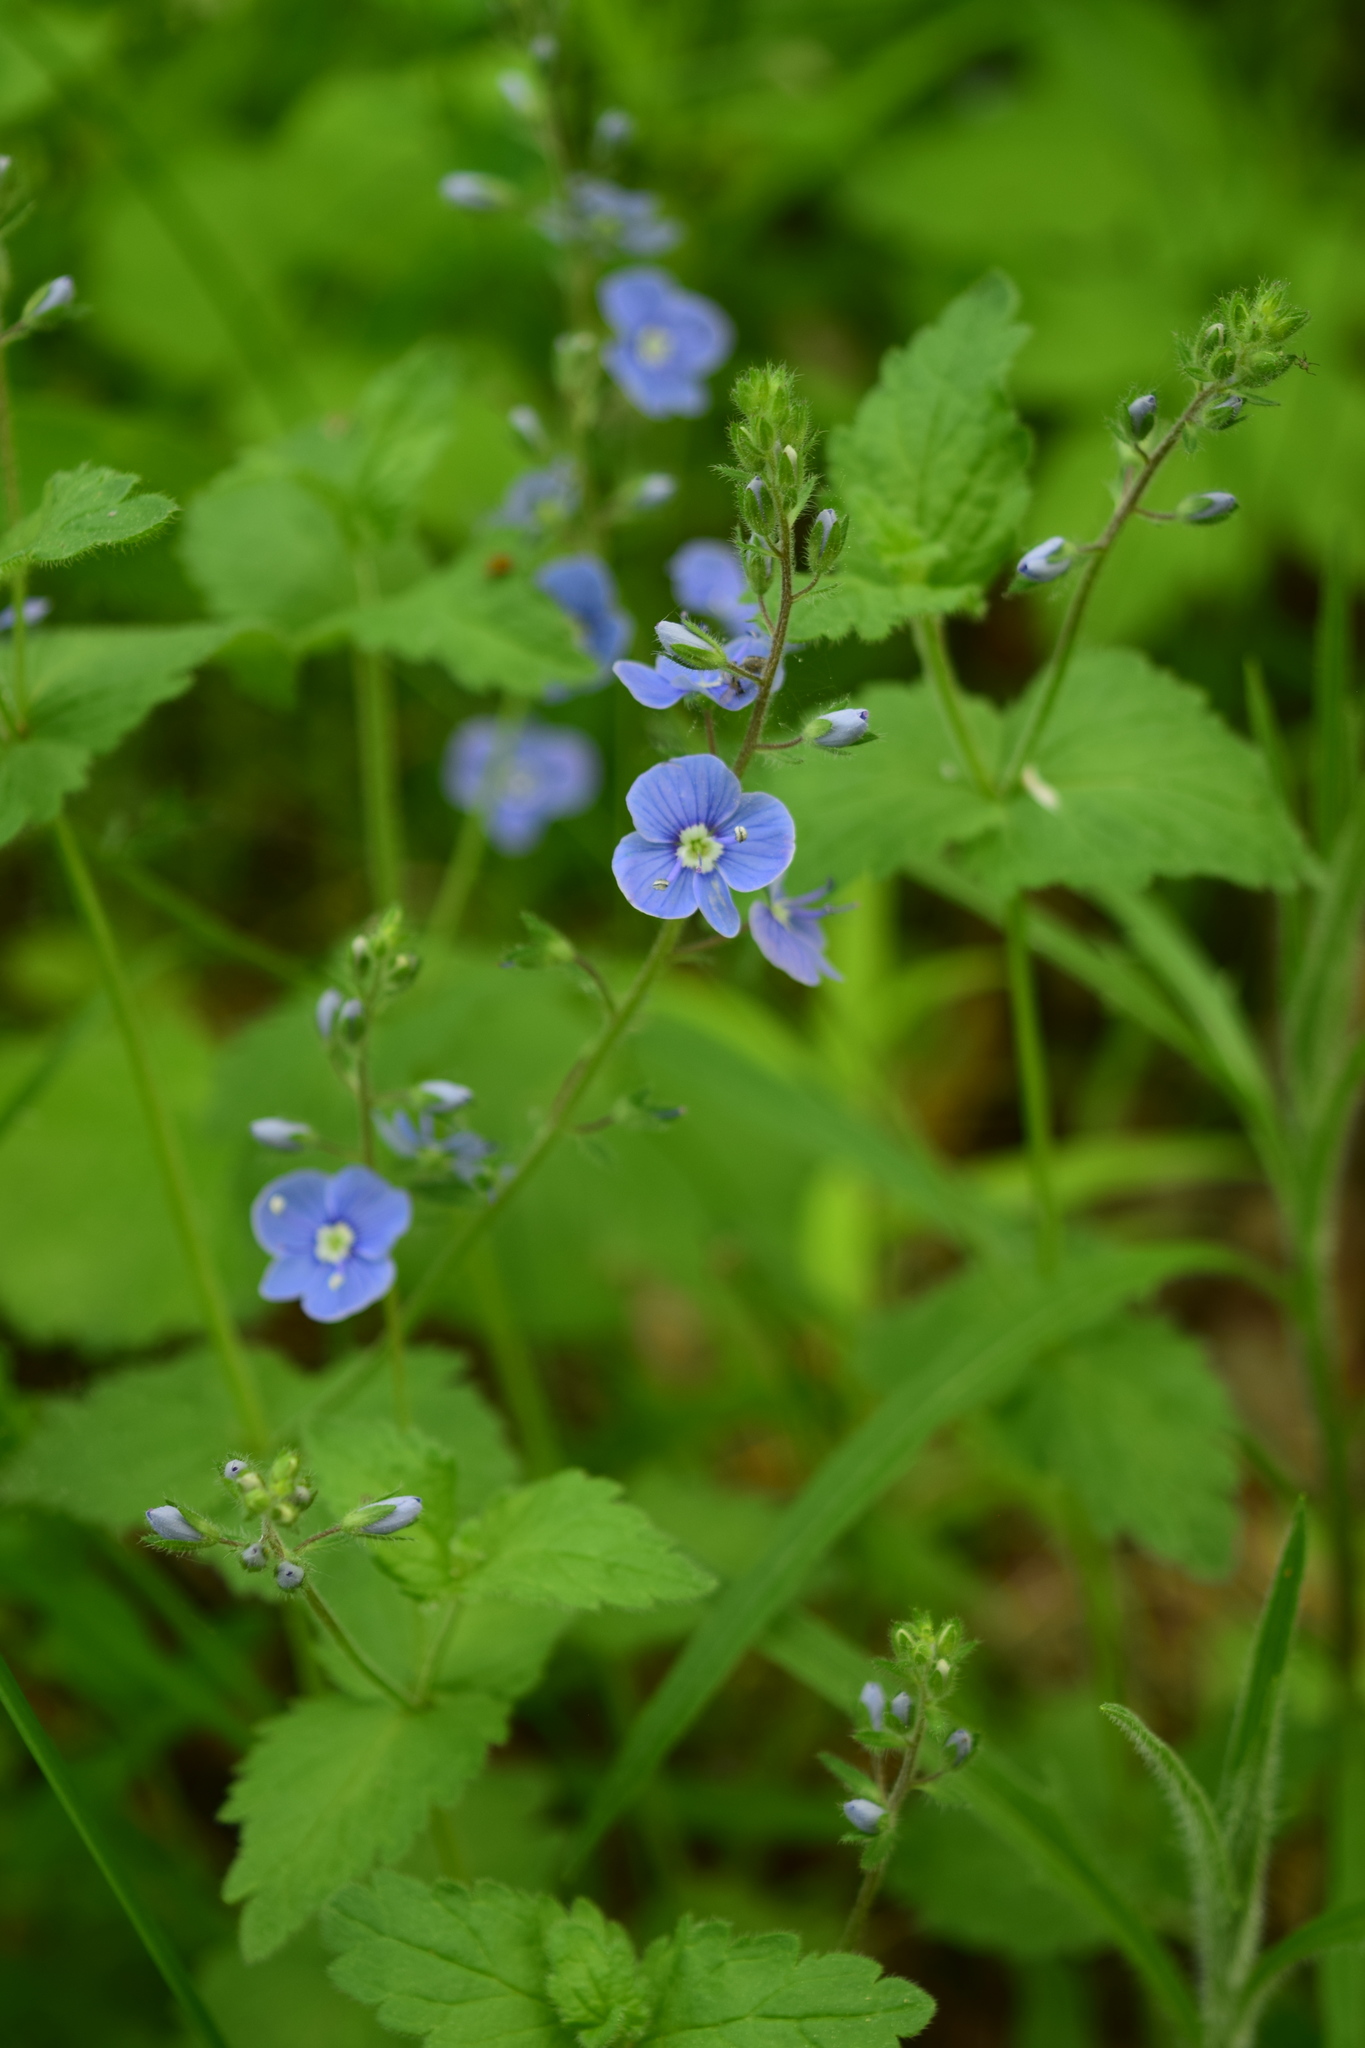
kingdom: Plantae
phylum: Tracheophyta
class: Magnoliopsida
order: Lamiales
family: Plantaginaceae
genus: Veronica
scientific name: Veronica chamaedrys
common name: Germander speedwell
